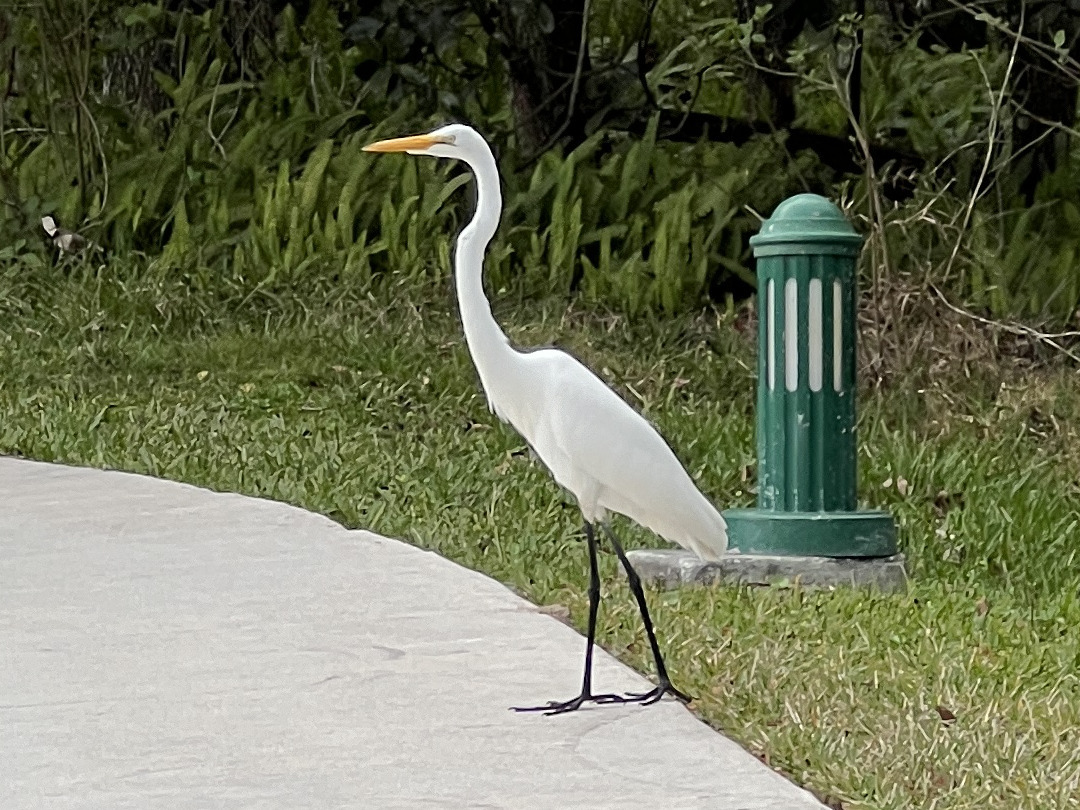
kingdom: Animalia
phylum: Chordata
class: Aves
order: Pelecaniformes
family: Ardeidae
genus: Ardea
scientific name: Ardea alba
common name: Great egret
